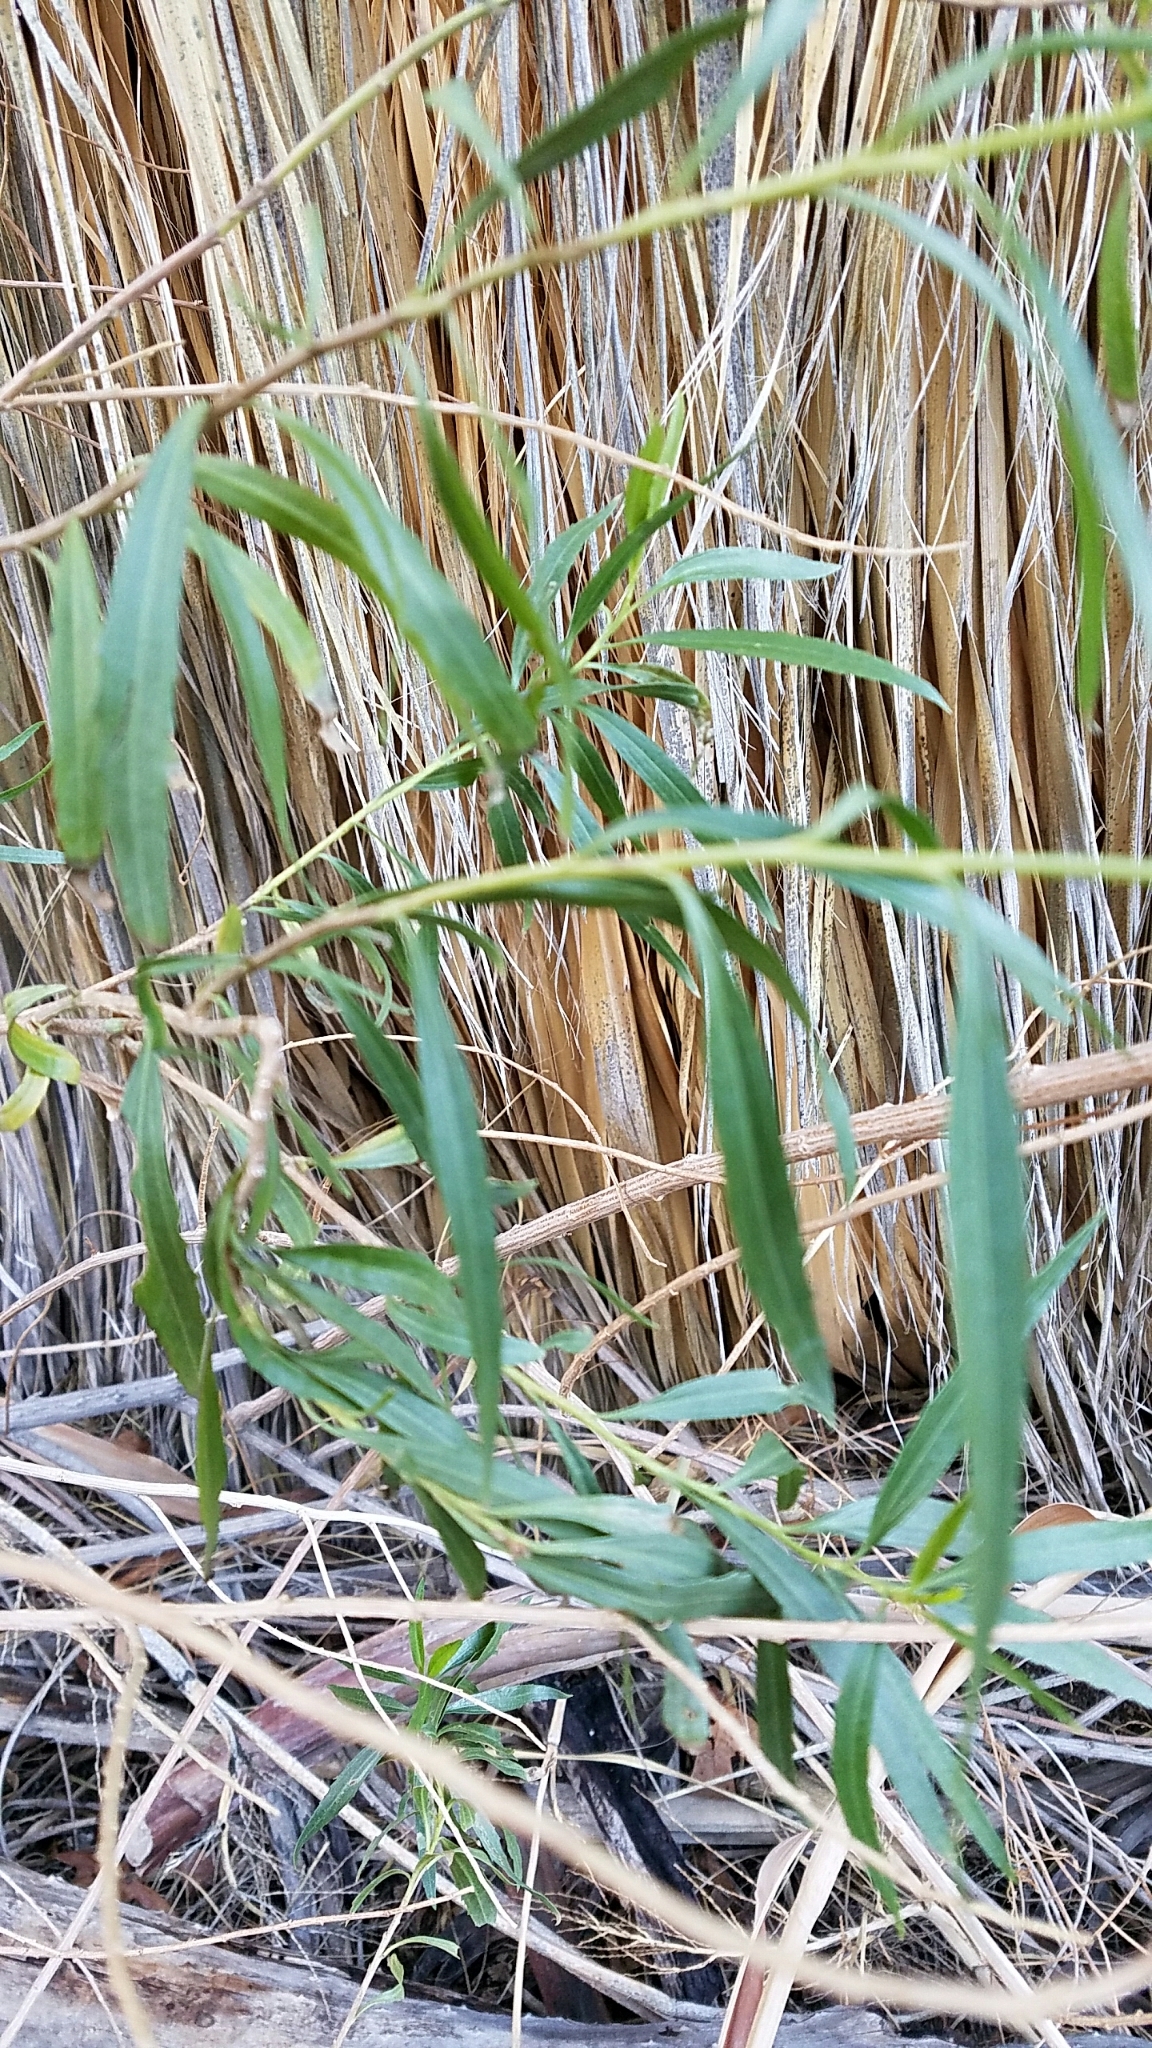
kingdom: Plantae
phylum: Tracheophyta
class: Magnoliopsida
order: Asterales
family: Asteraceae
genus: Baccharis
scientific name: Baccharis salicifolia
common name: Sticky baccharis
